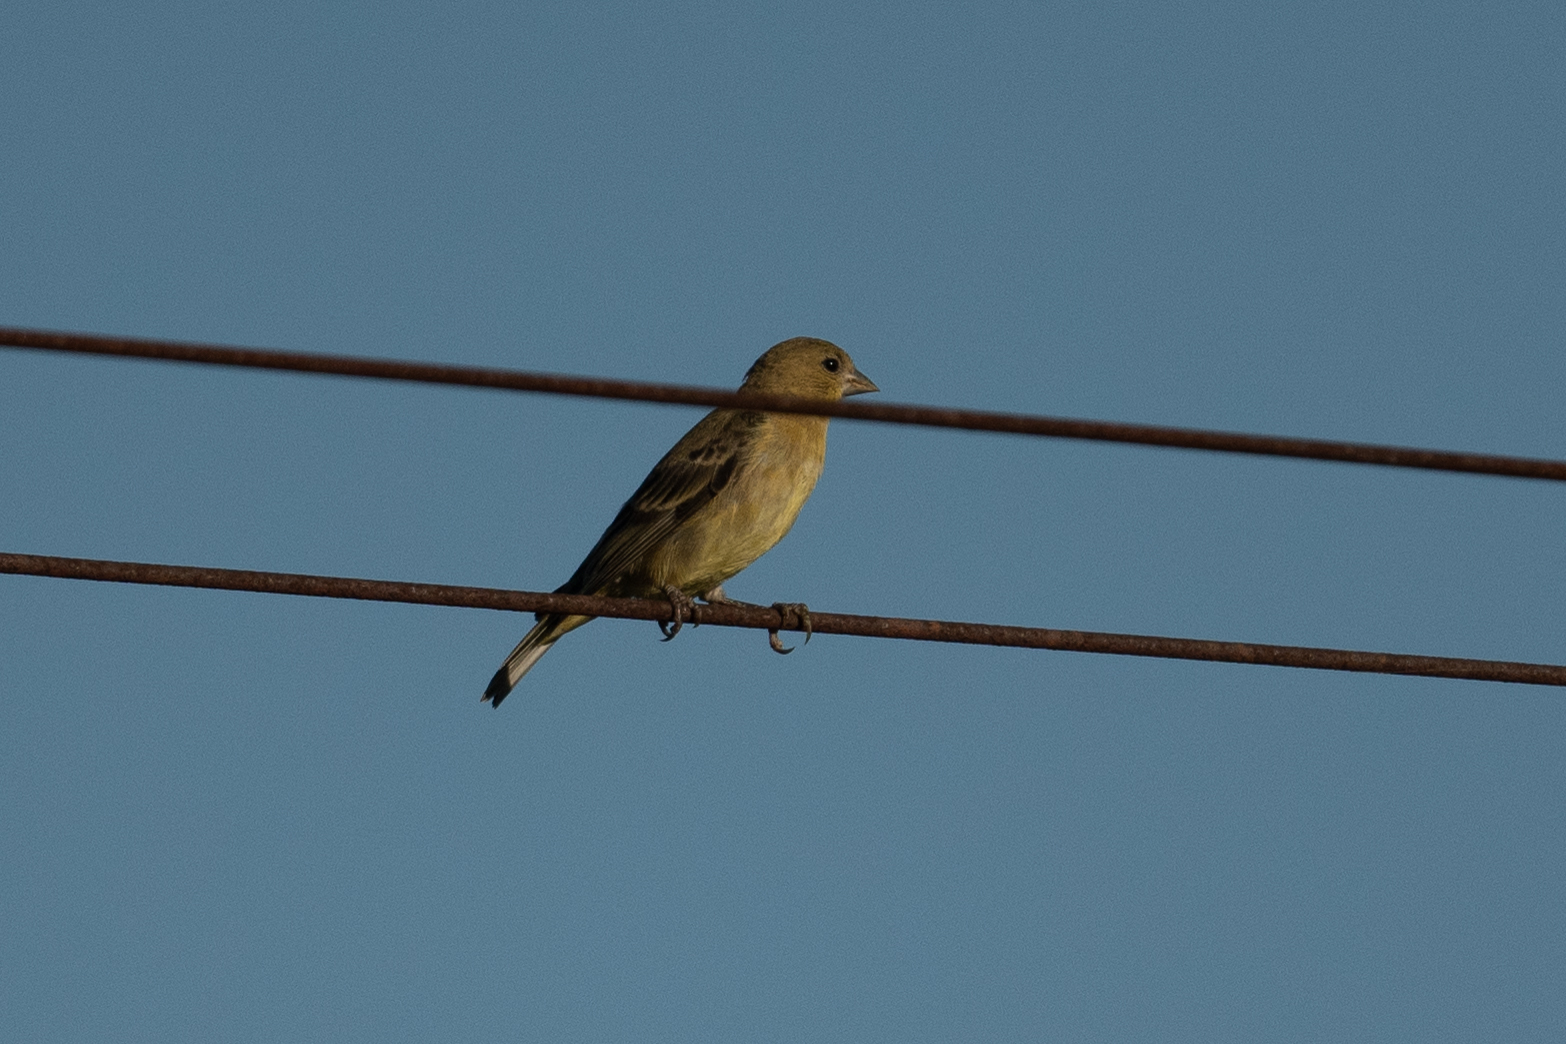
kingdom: Animalia
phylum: Chordata
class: Aves
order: Passeriformes
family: Fringillidae
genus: Spinus
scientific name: Spinus psaltria
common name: Lesser goldfinch
